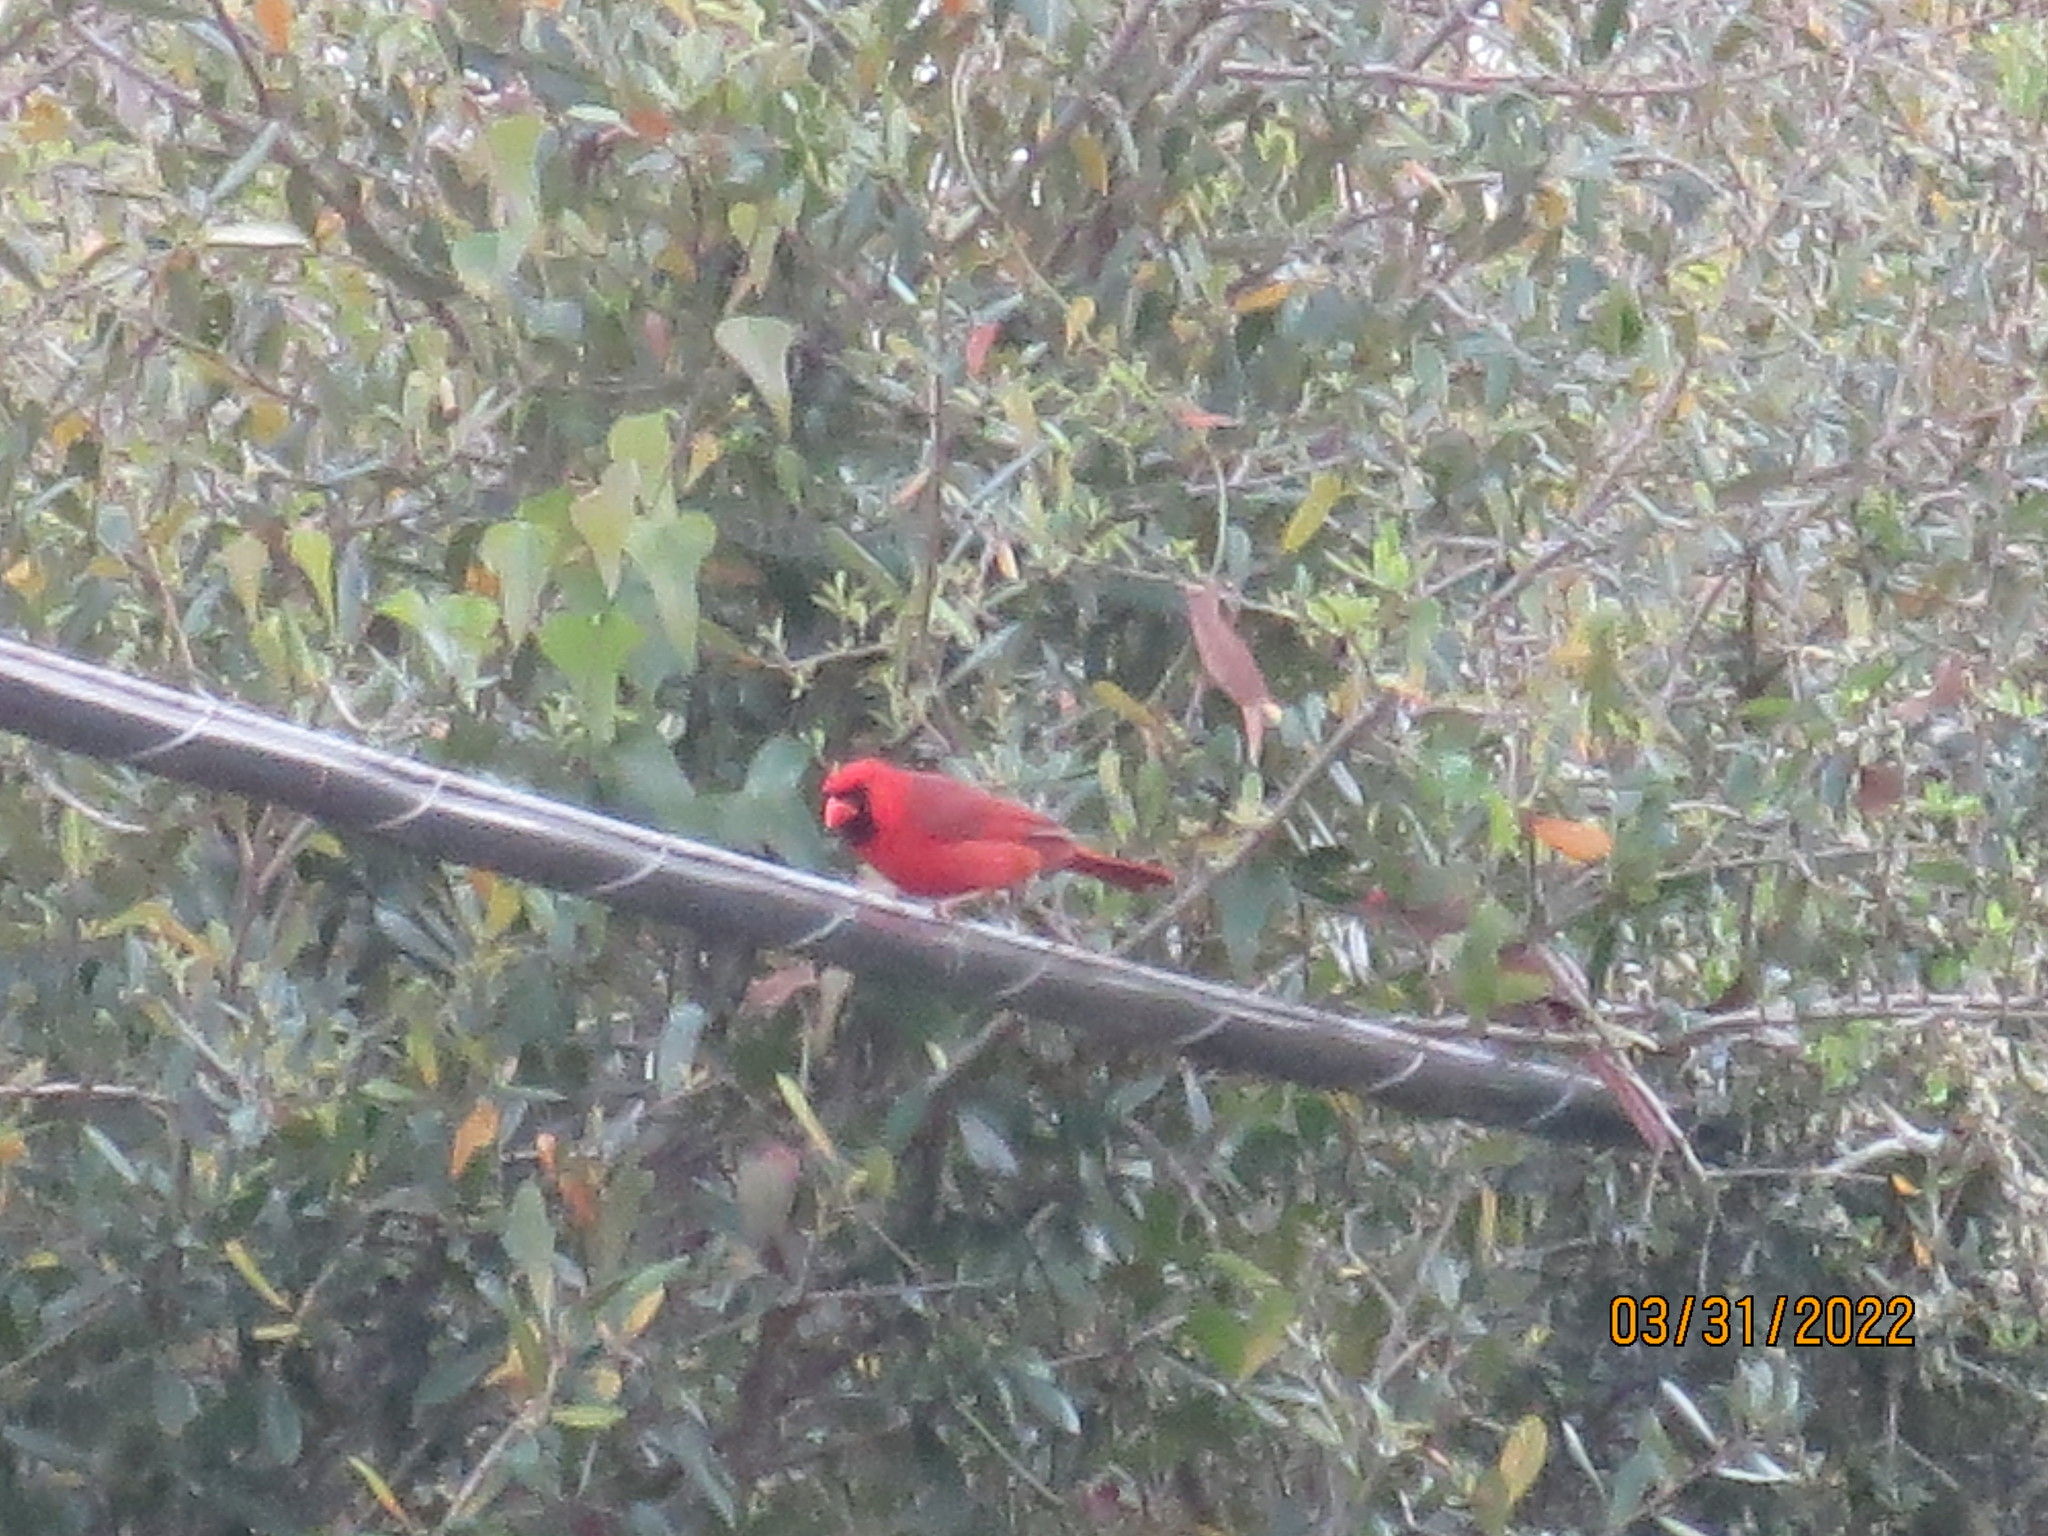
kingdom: Animalia
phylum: Chordata
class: Aves
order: Passeriformes
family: Cardinalidae
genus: Cardinalis
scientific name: Cardinalis cardinalis
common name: Northern cardinal
